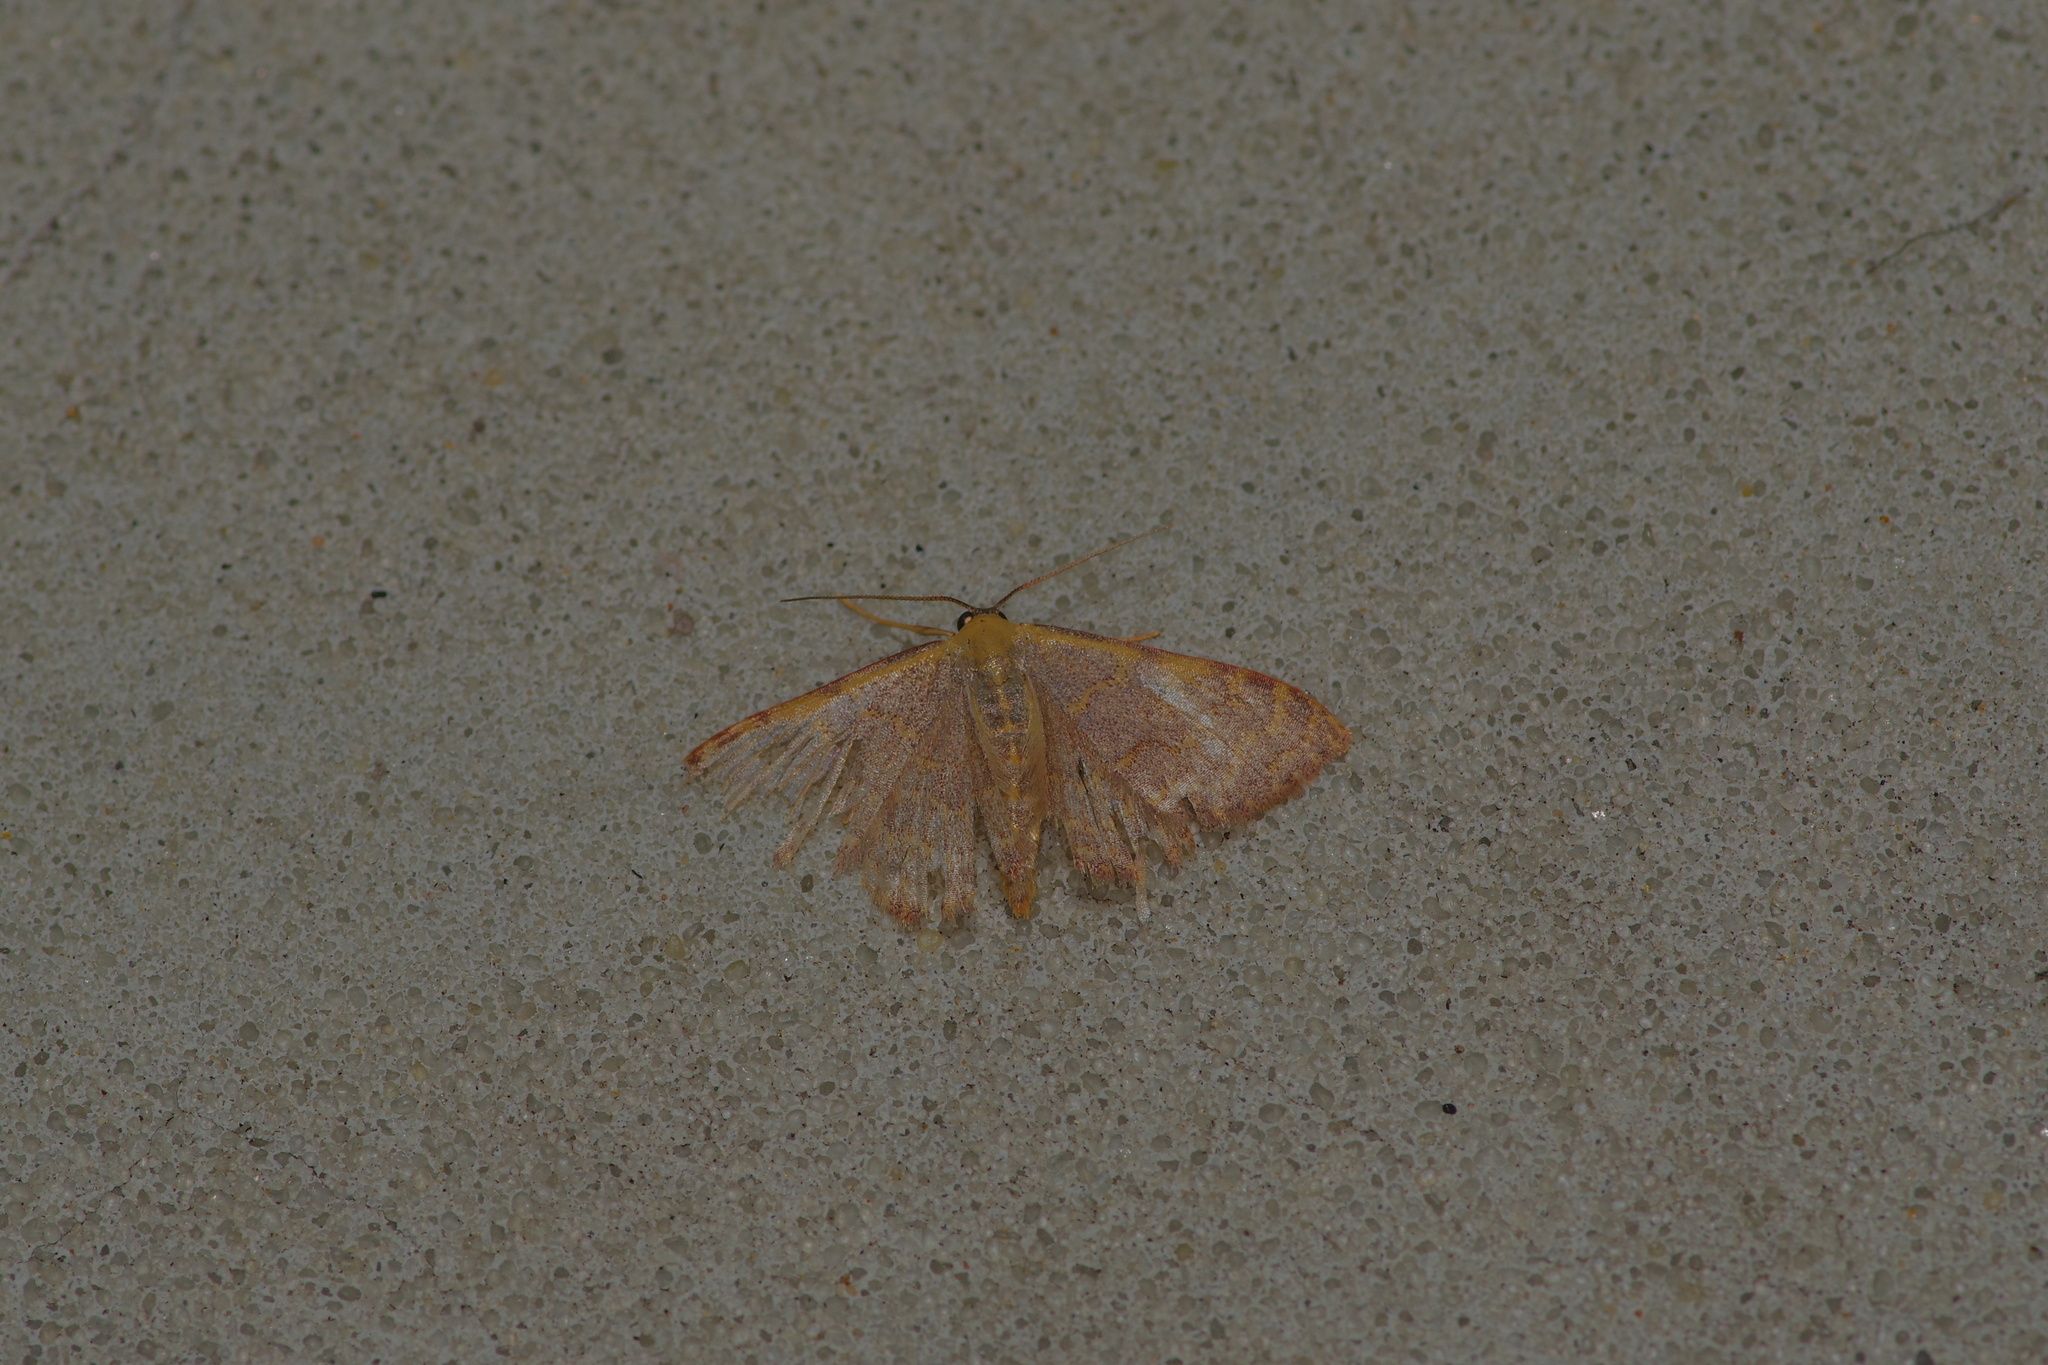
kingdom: Animalia
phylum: Arthropoda
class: Insecta
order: Lepidoptera
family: Geometridae
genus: Leptostales
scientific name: Leptostales pannaria
